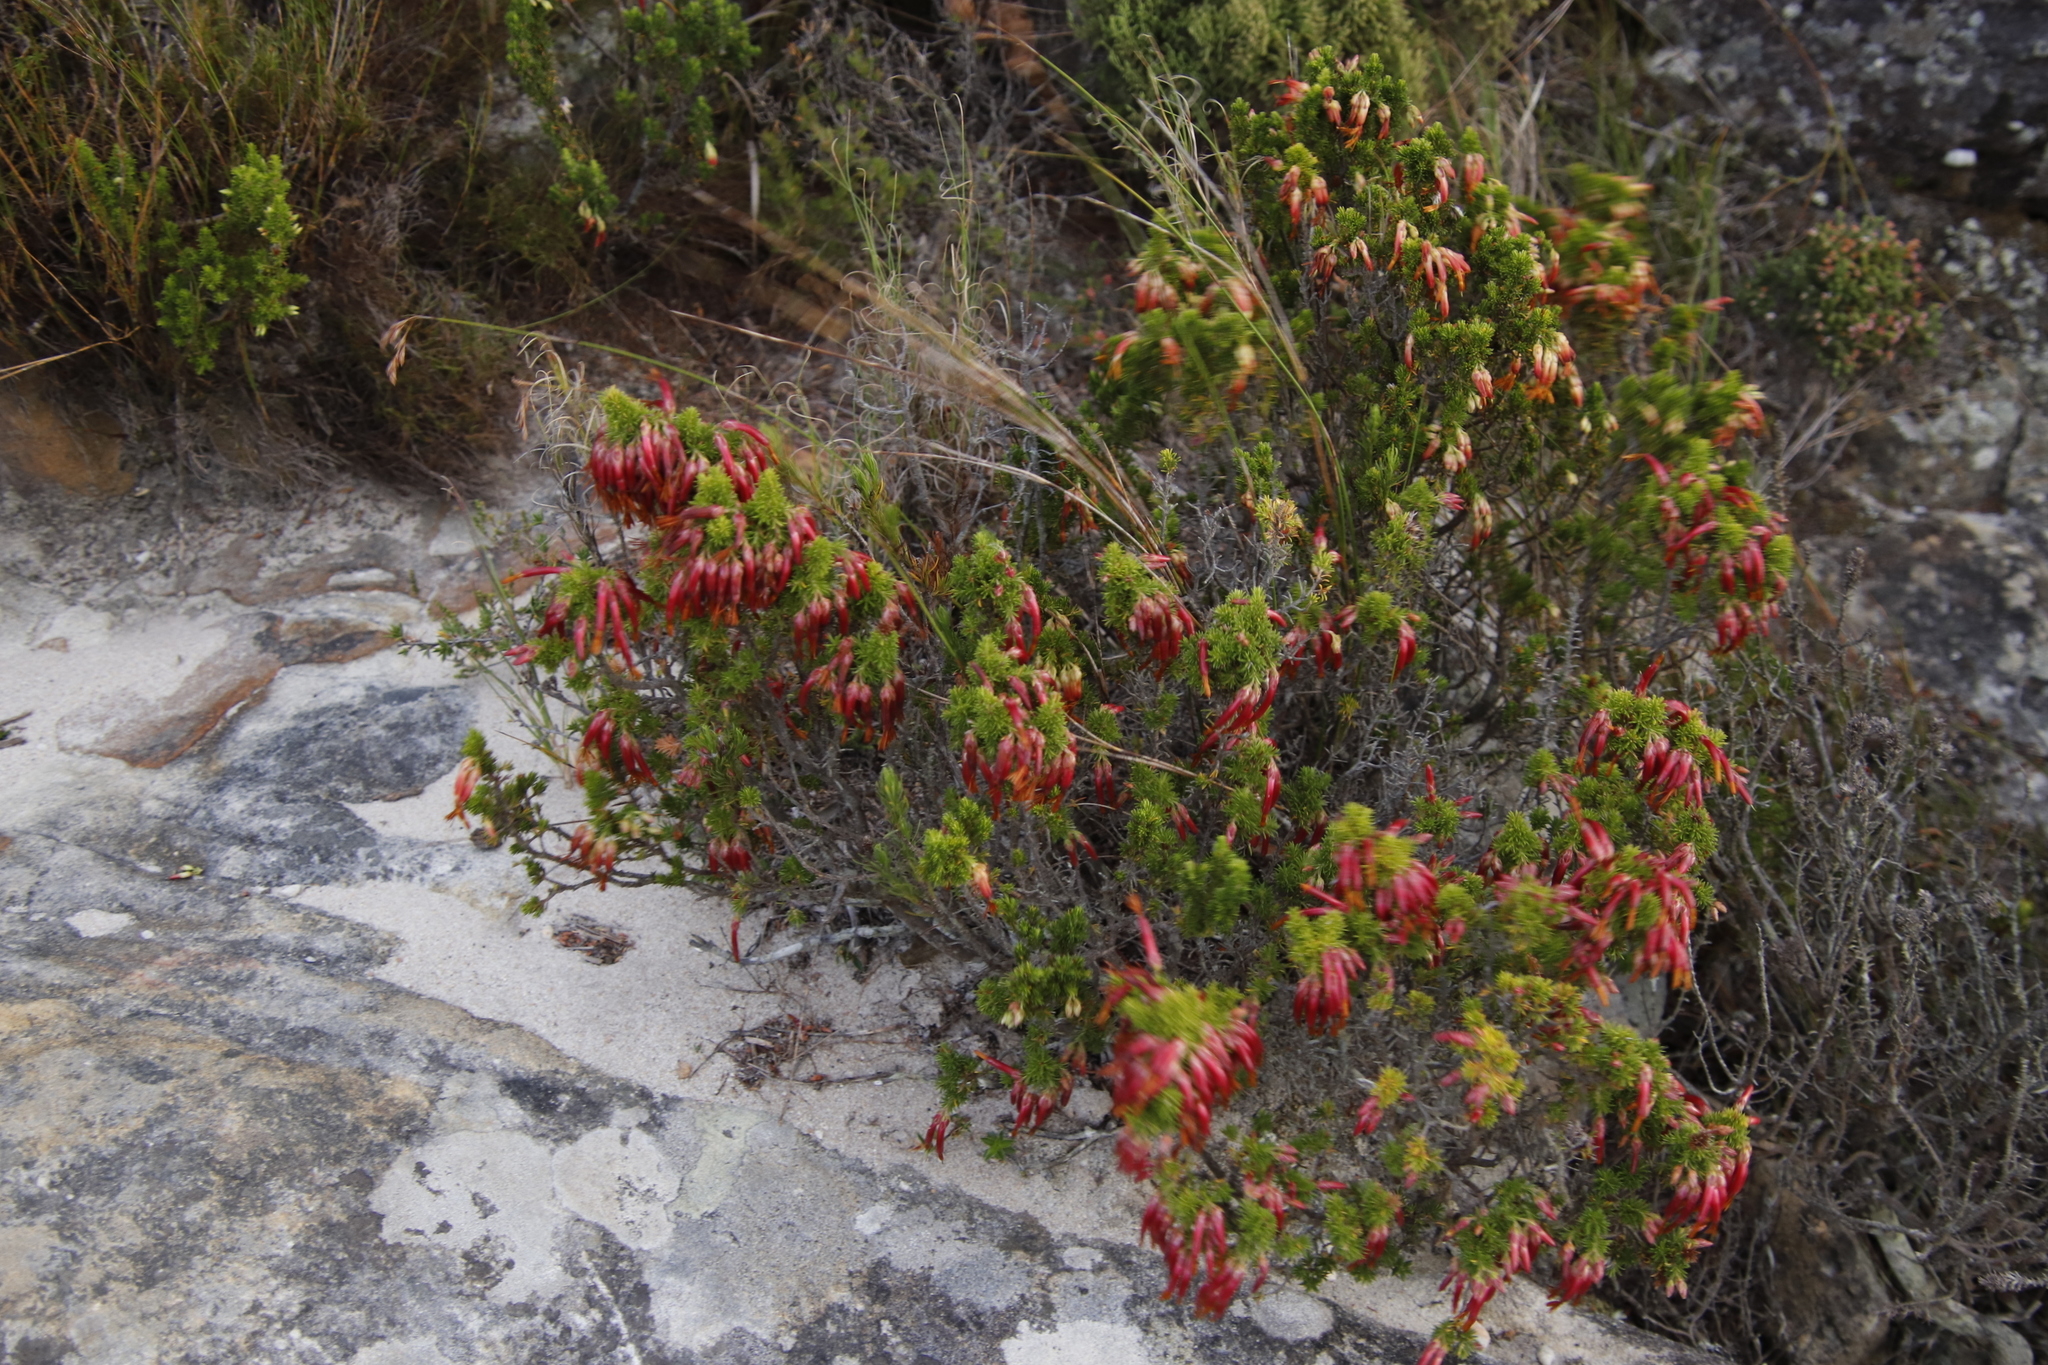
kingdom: Plantae
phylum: Tracheophyta
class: Magnoliopsida
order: Ericales
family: Ericaceae
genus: Erica
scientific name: Erica coccinea
